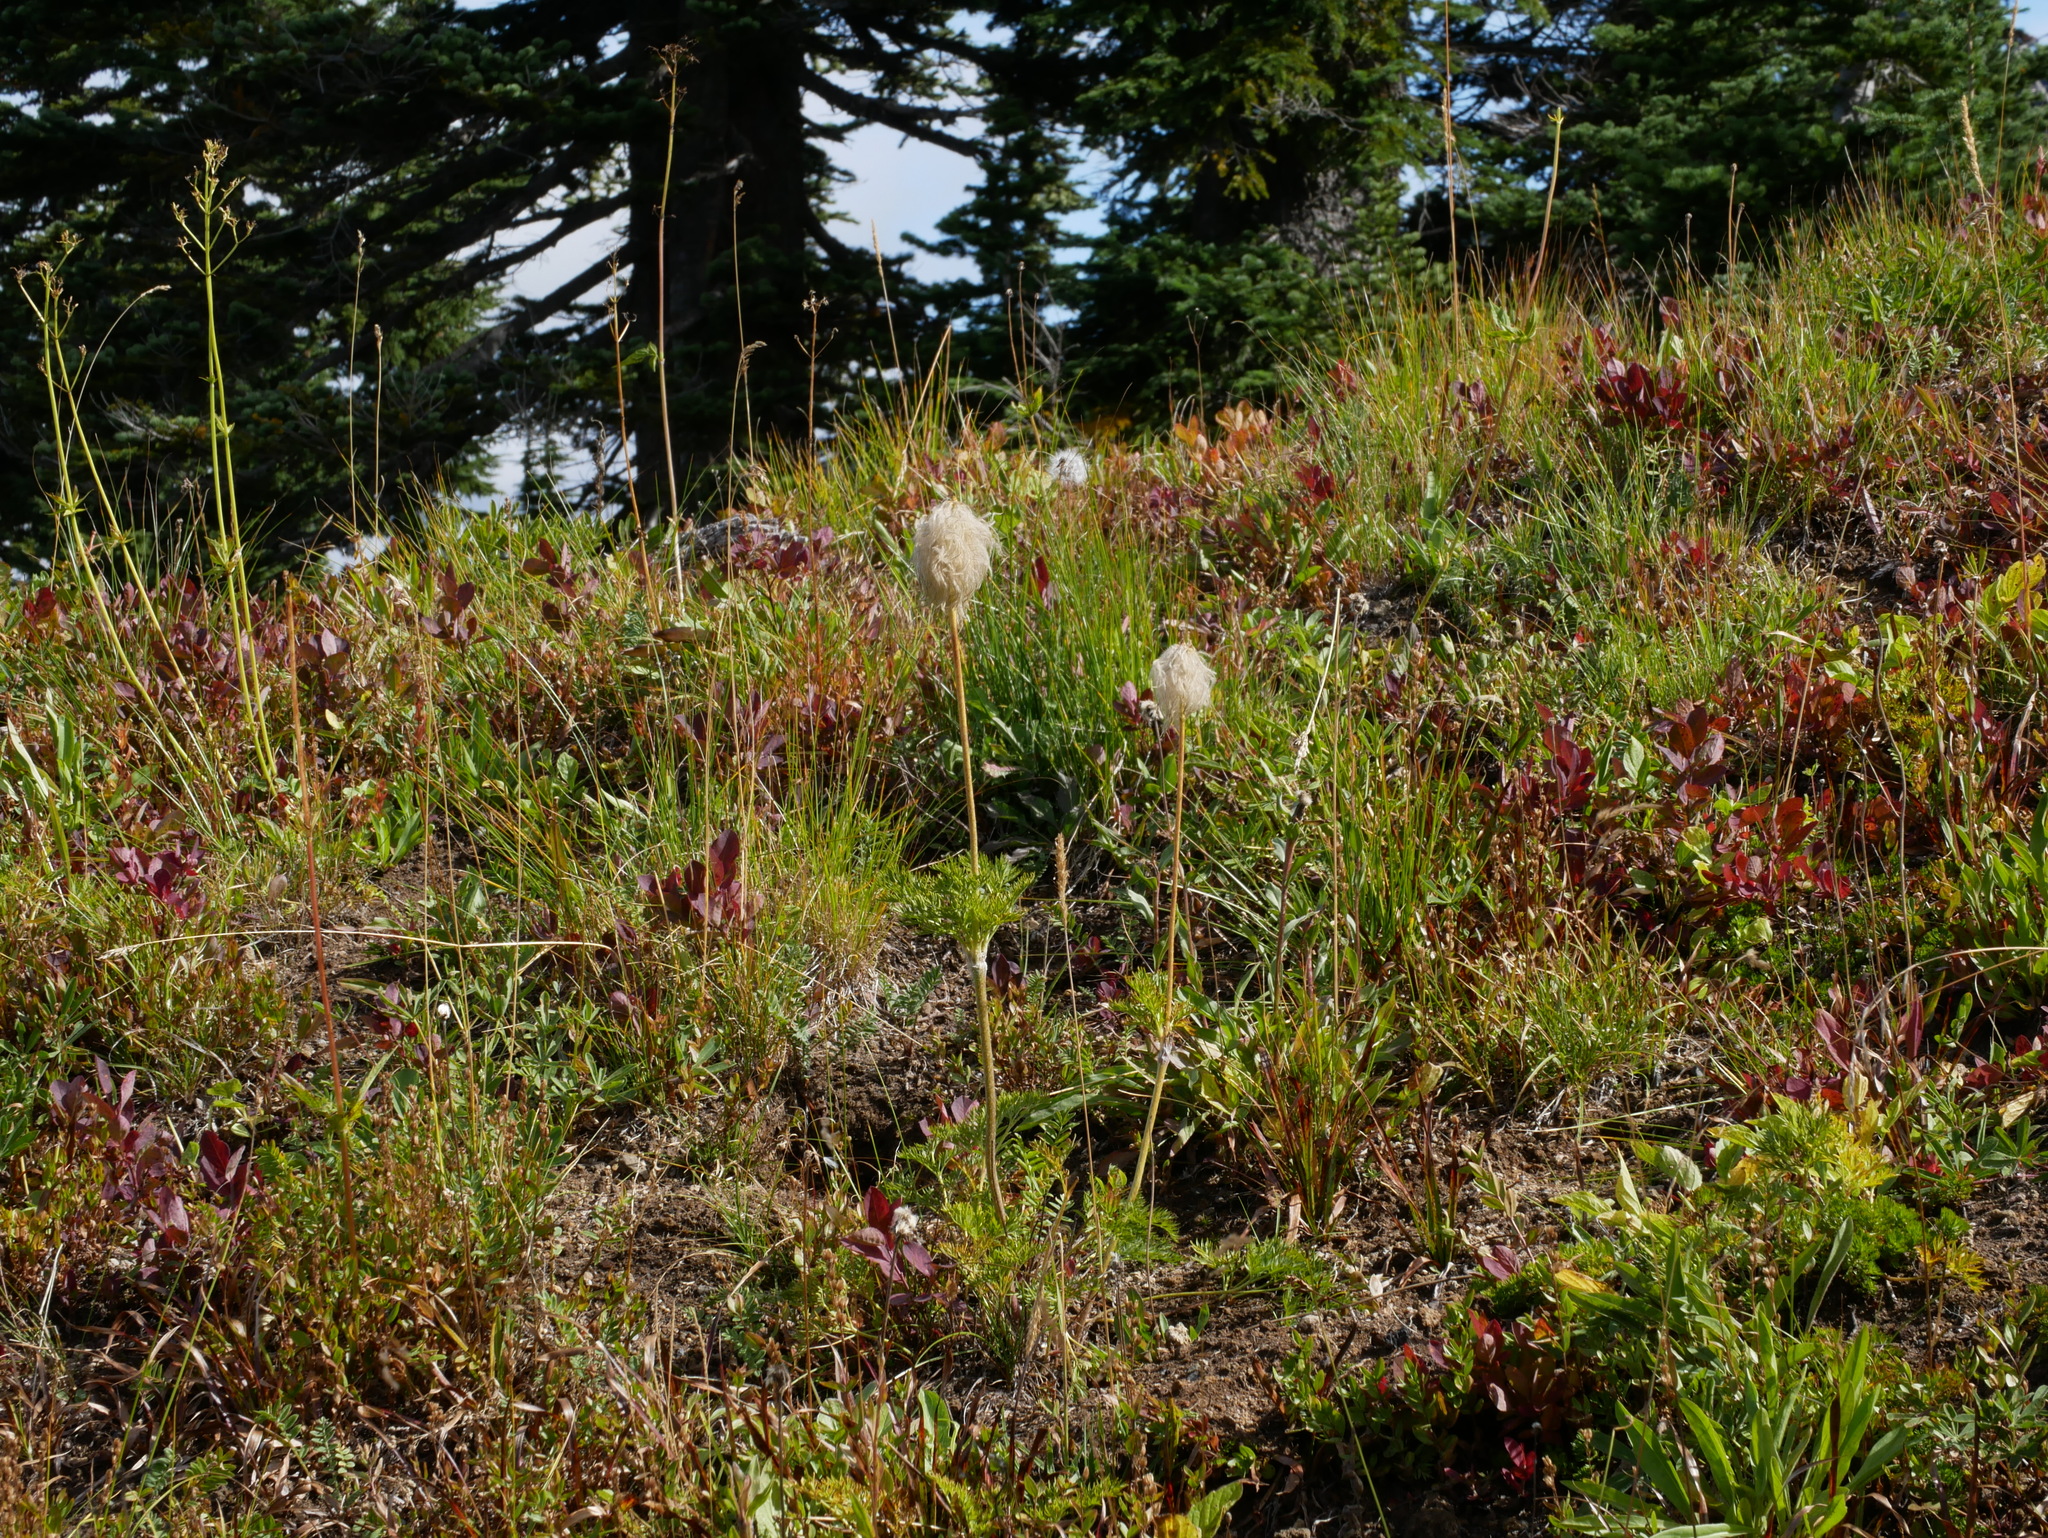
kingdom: Plantae
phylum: Tracheophyta
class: Magnoliopsida
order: Ranunculales
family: Ranunculaceae
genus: Pulsatilla
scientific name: Pulsatilla occidentalis
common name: Mountain pasqueflower
